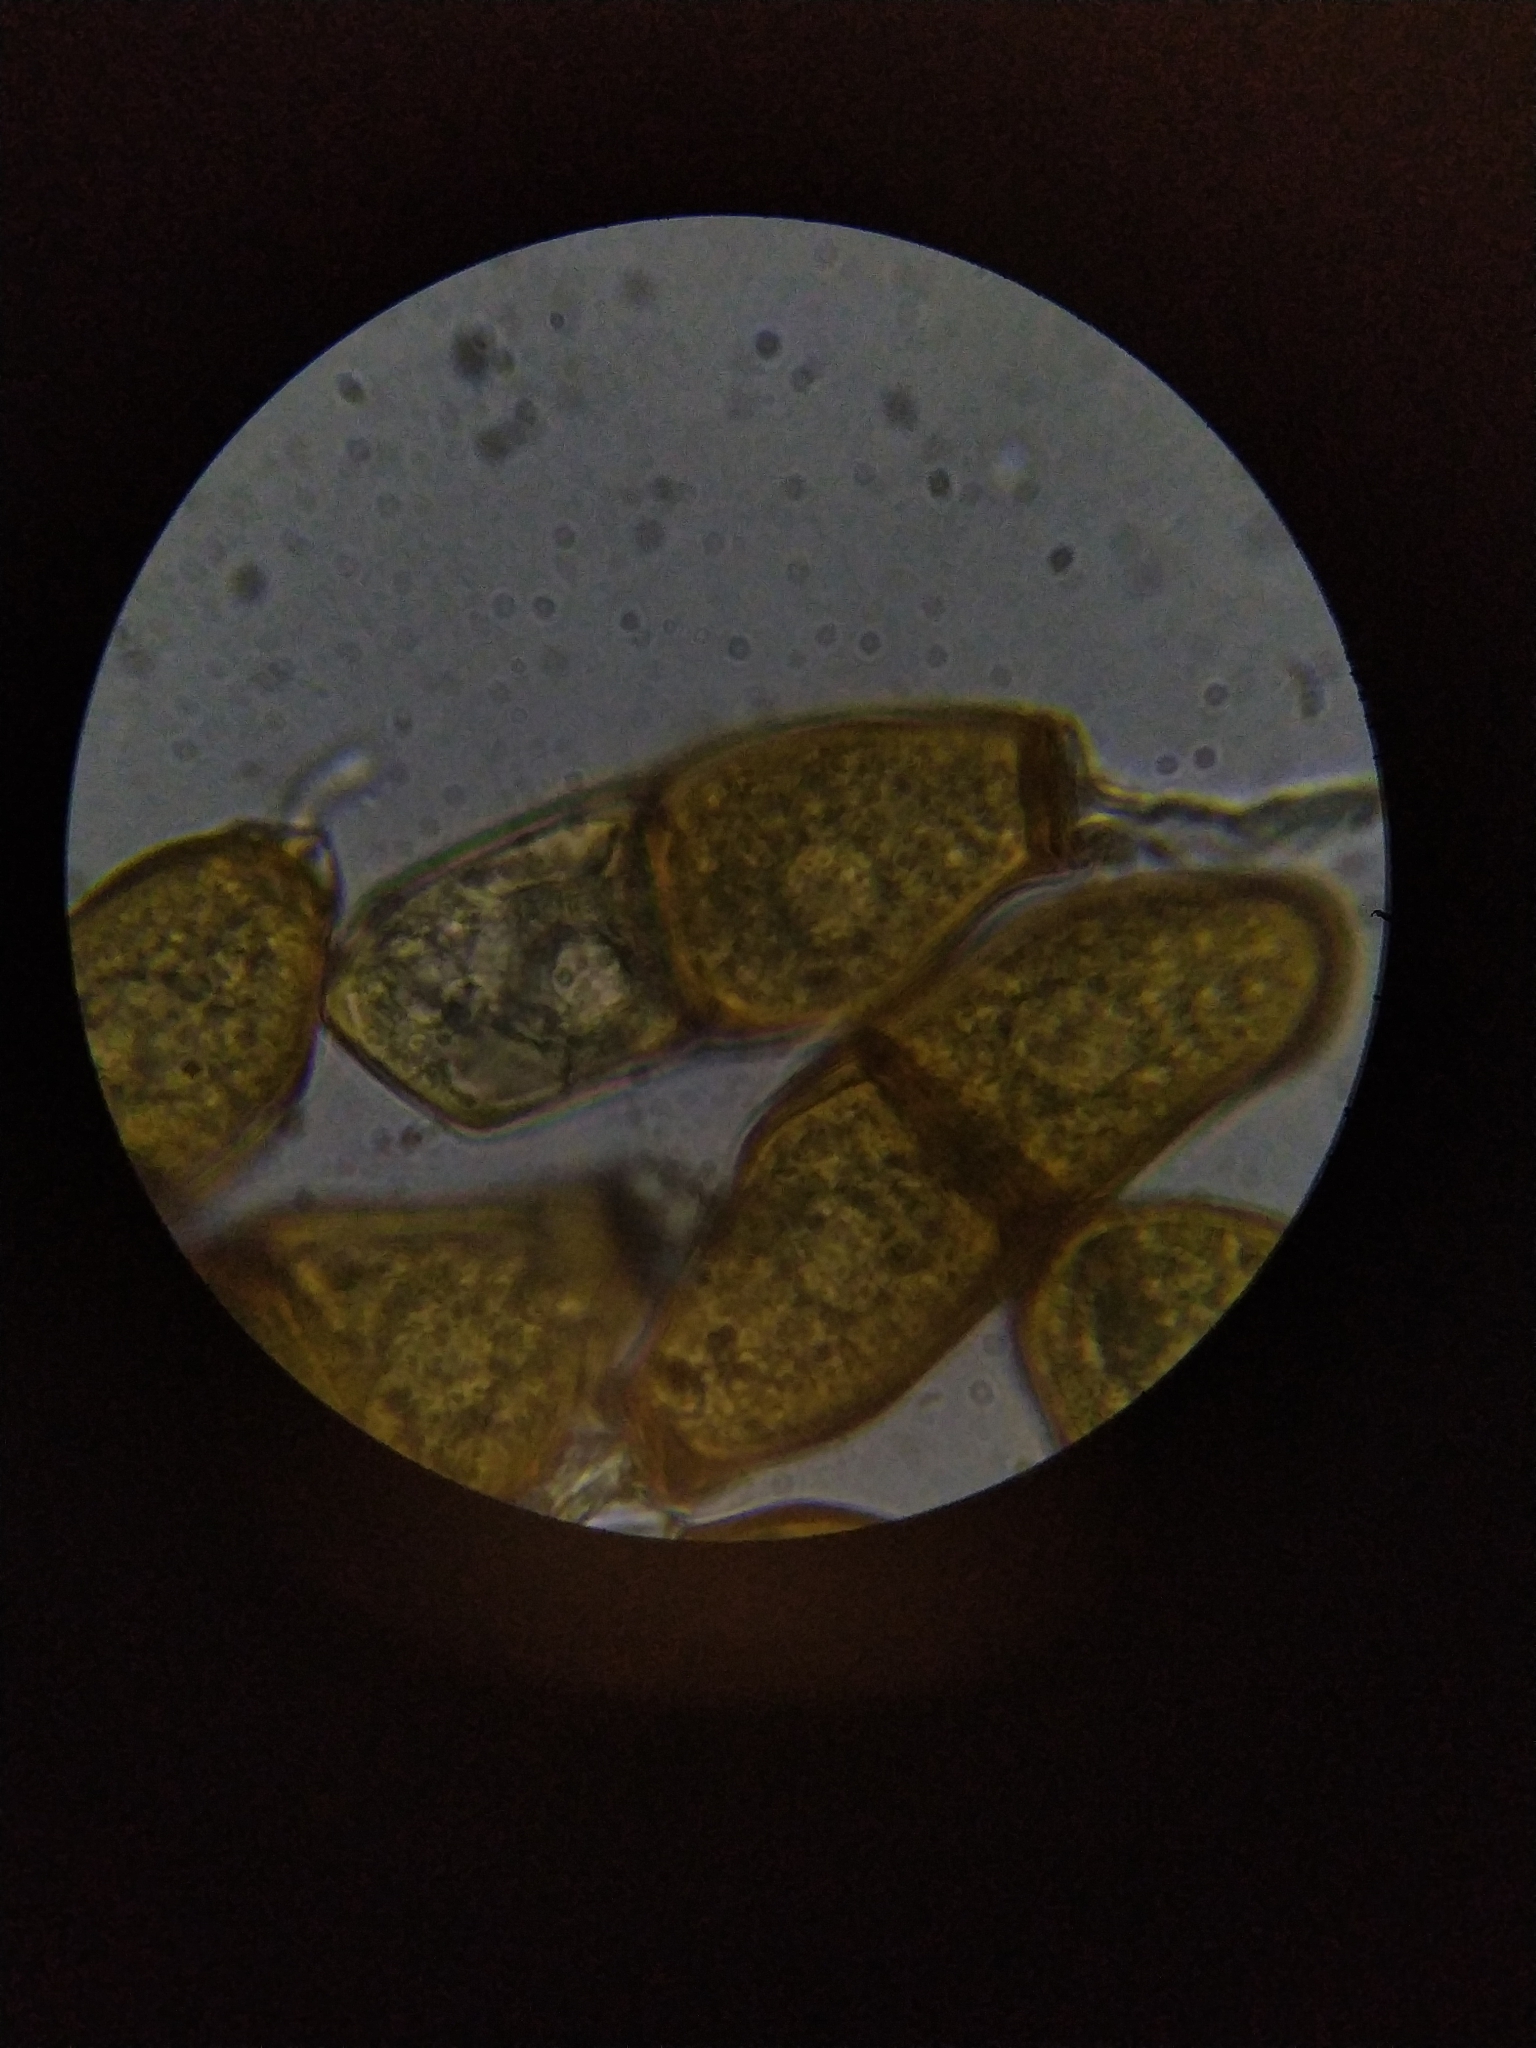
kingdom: Fungi
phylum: Basidiomycota
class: Pucciniomycetes
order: Pucciniales
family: Pucciniaceae
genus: Puccinia
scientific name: Puccinia liliacearum
